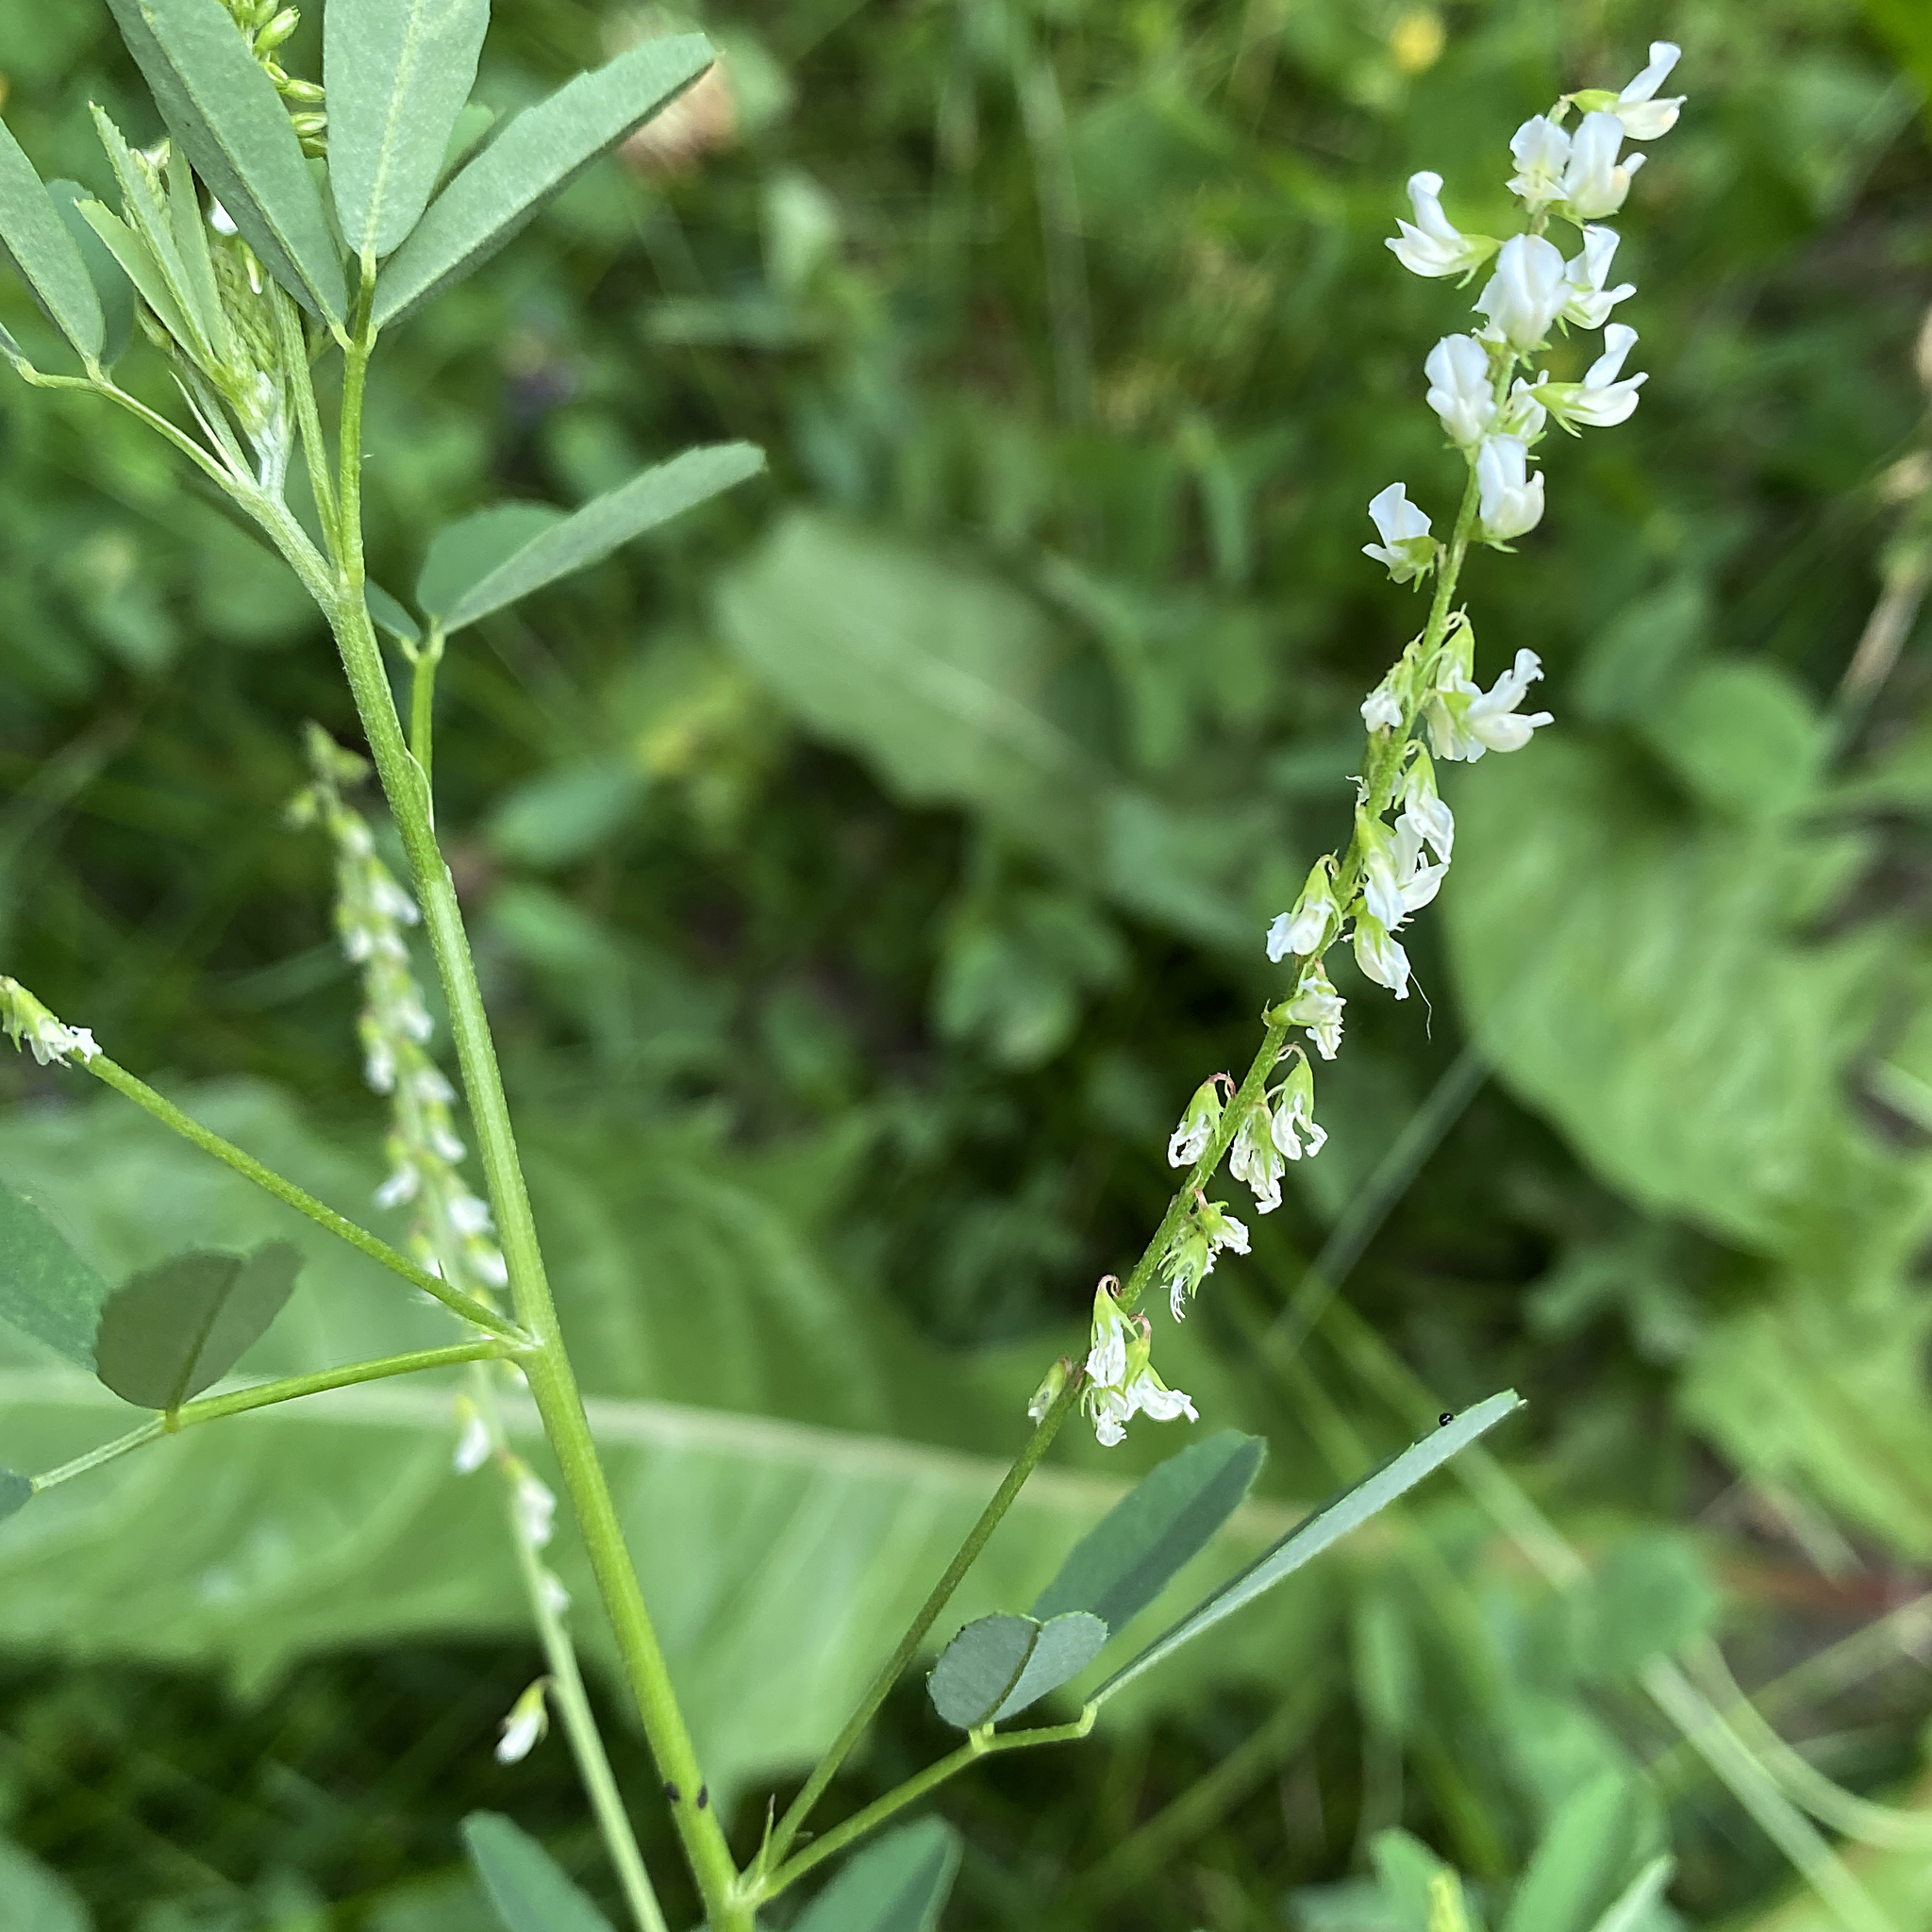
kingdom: Plantae
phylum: Tracheophyta
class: Magnoliopsida
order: Fabales
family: Fabaceae
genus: Melilotus
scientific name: Melilotus albus
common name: White melilot
